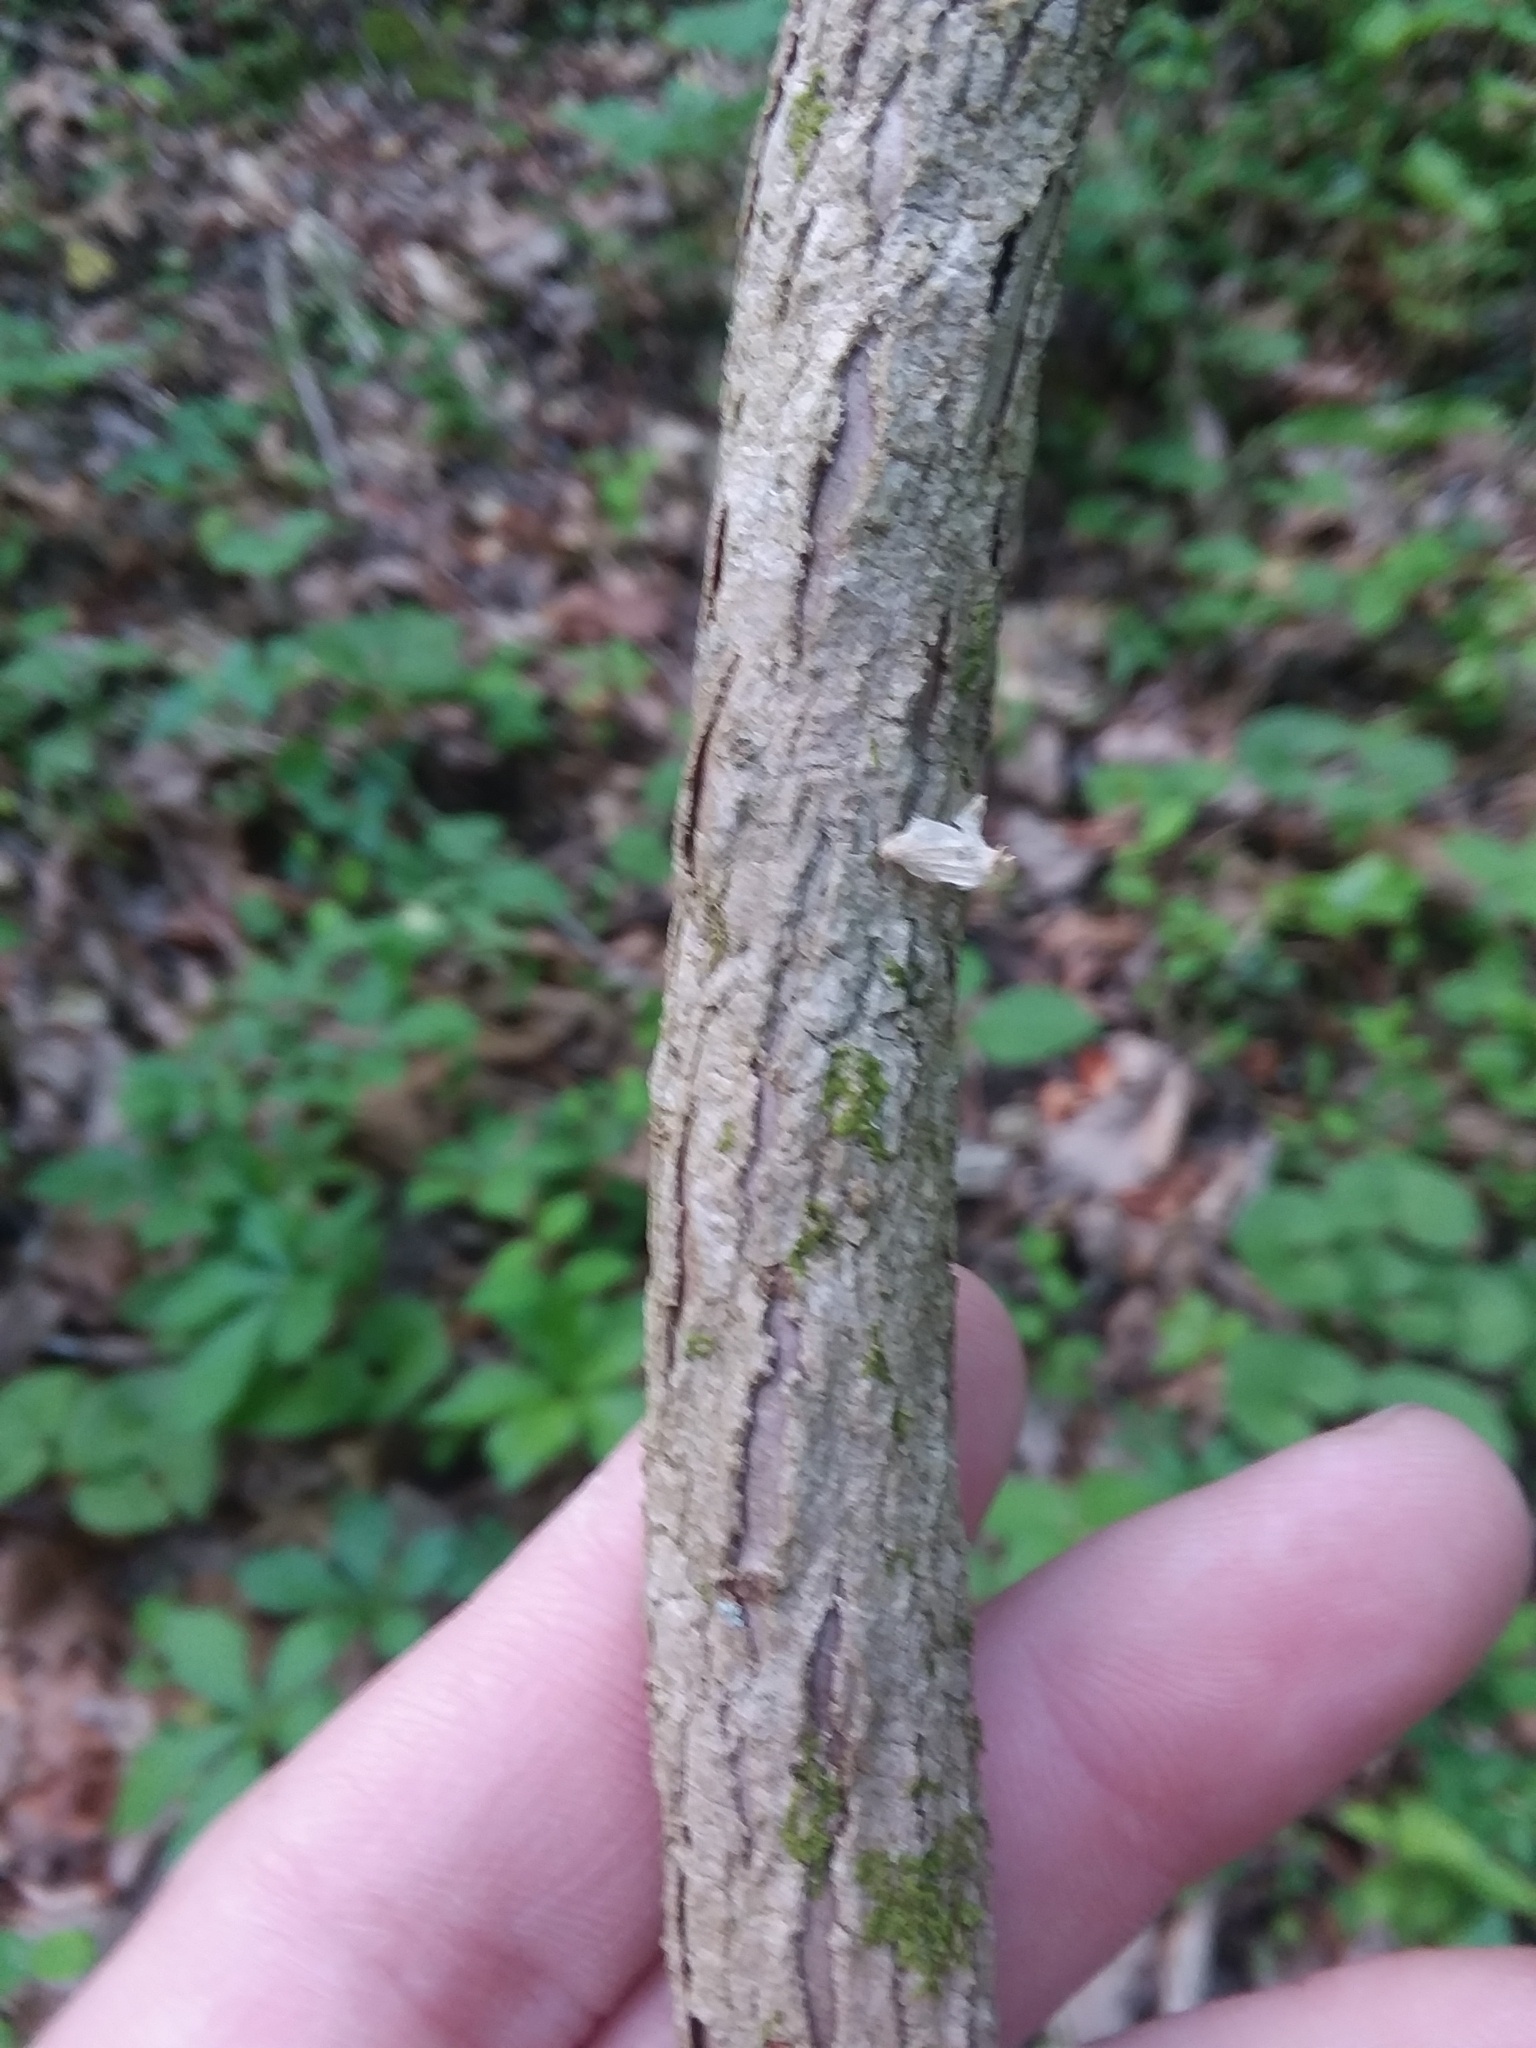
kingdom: Plantae
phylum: Tracheophyta
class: Magnoliopsida
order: Austrobaileyales
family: Schisandraceae
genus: Schisandra
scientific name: Schisandra glabra
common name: Bay-starvine
